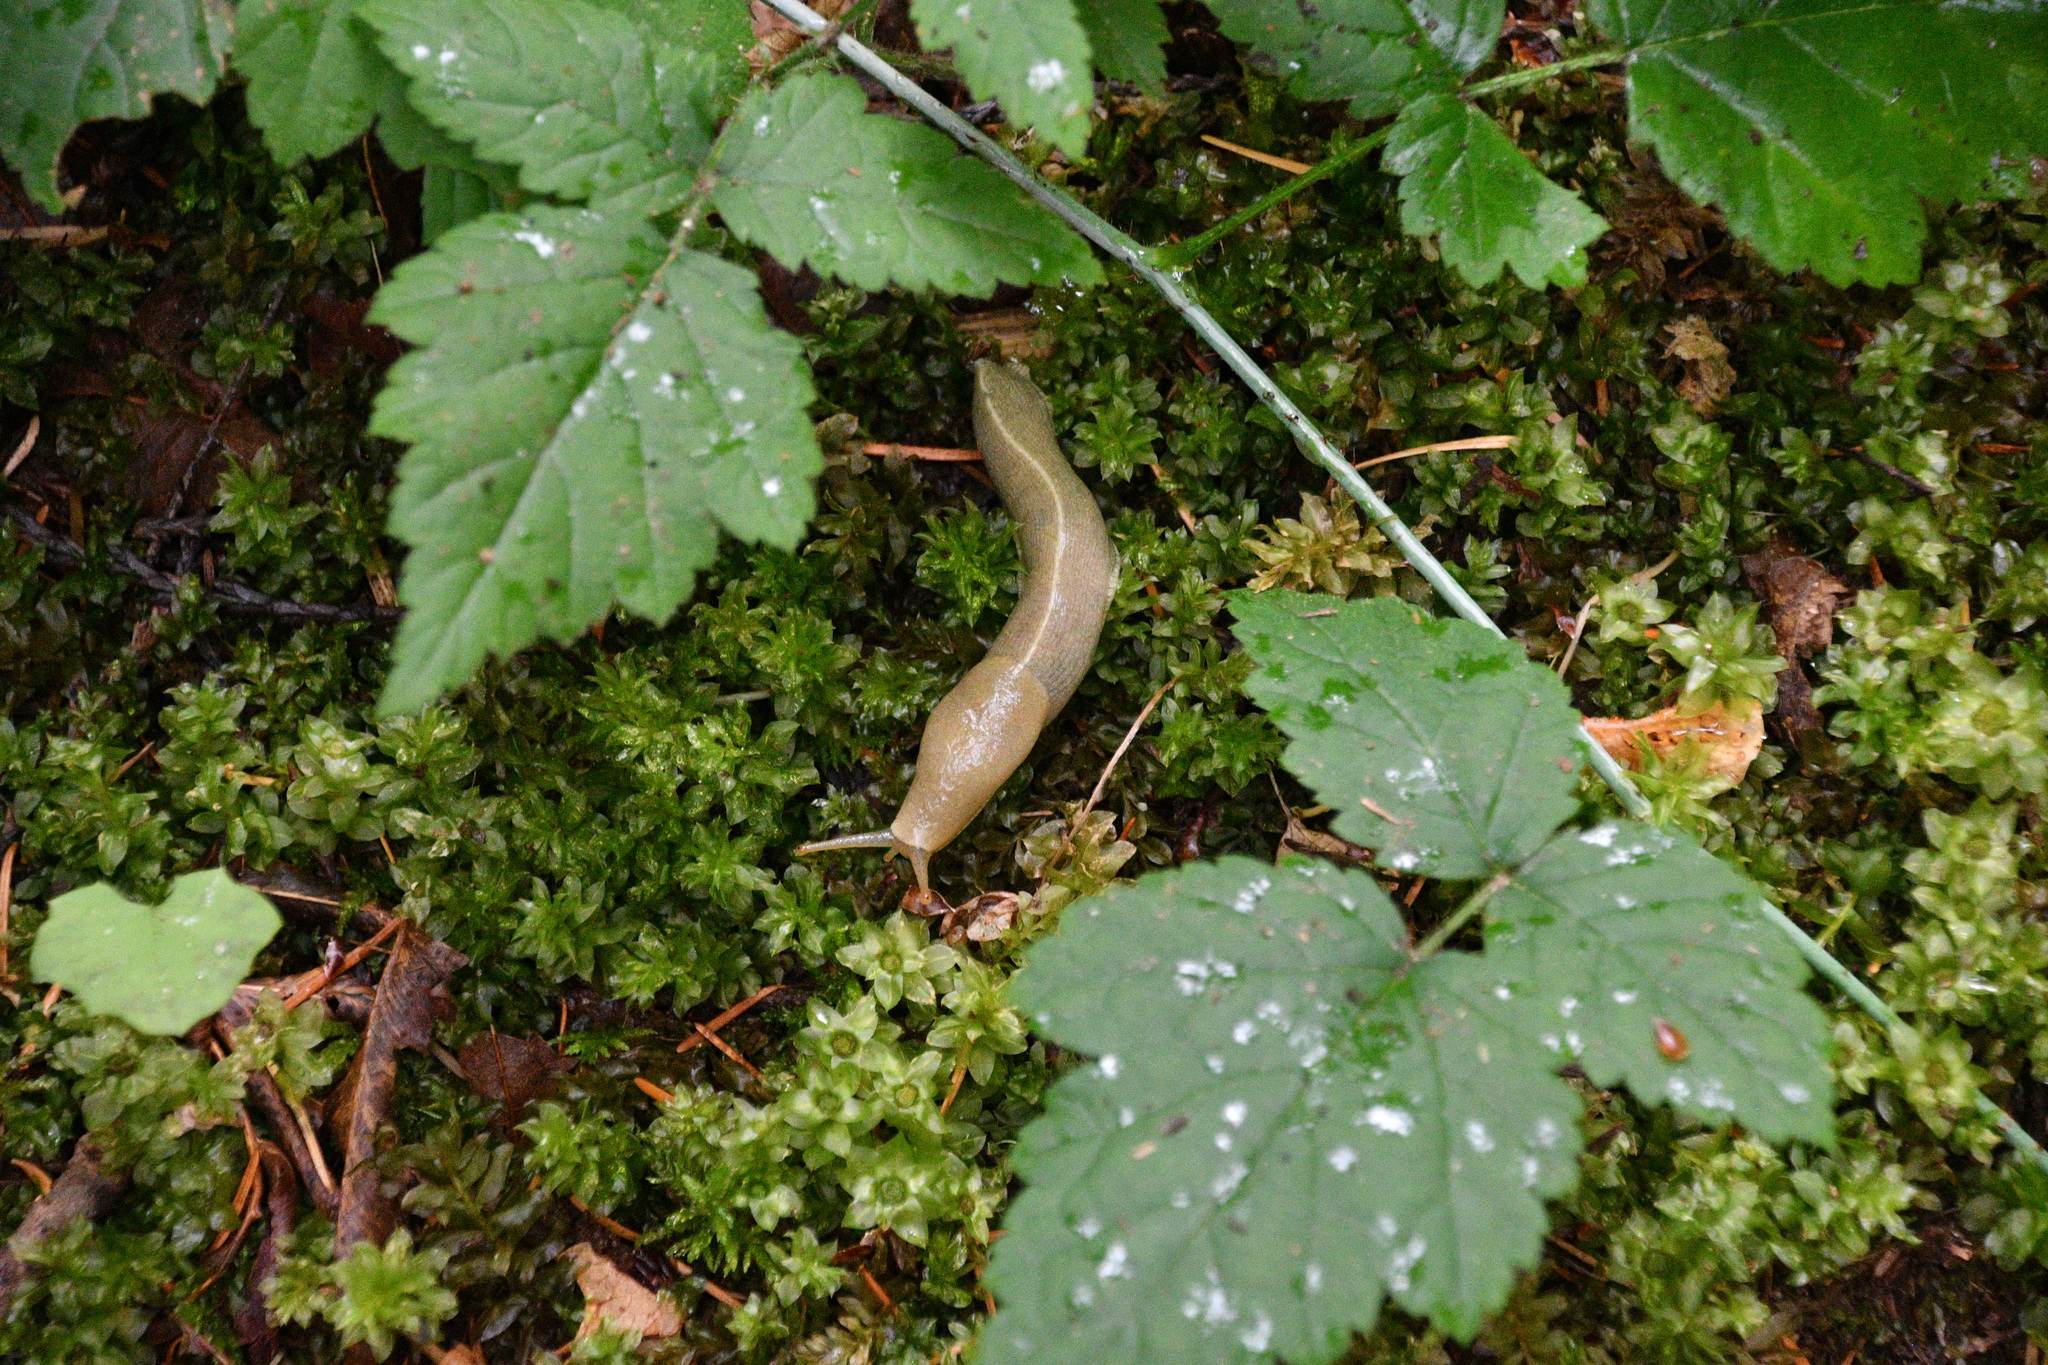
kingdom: Animalia
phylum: Mollusca
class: Gastropoda
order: Stylommatophora
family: Ariolimacidae
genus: Ariolimax
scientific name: Ariolimax columbianus
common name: Pacific banana slug
